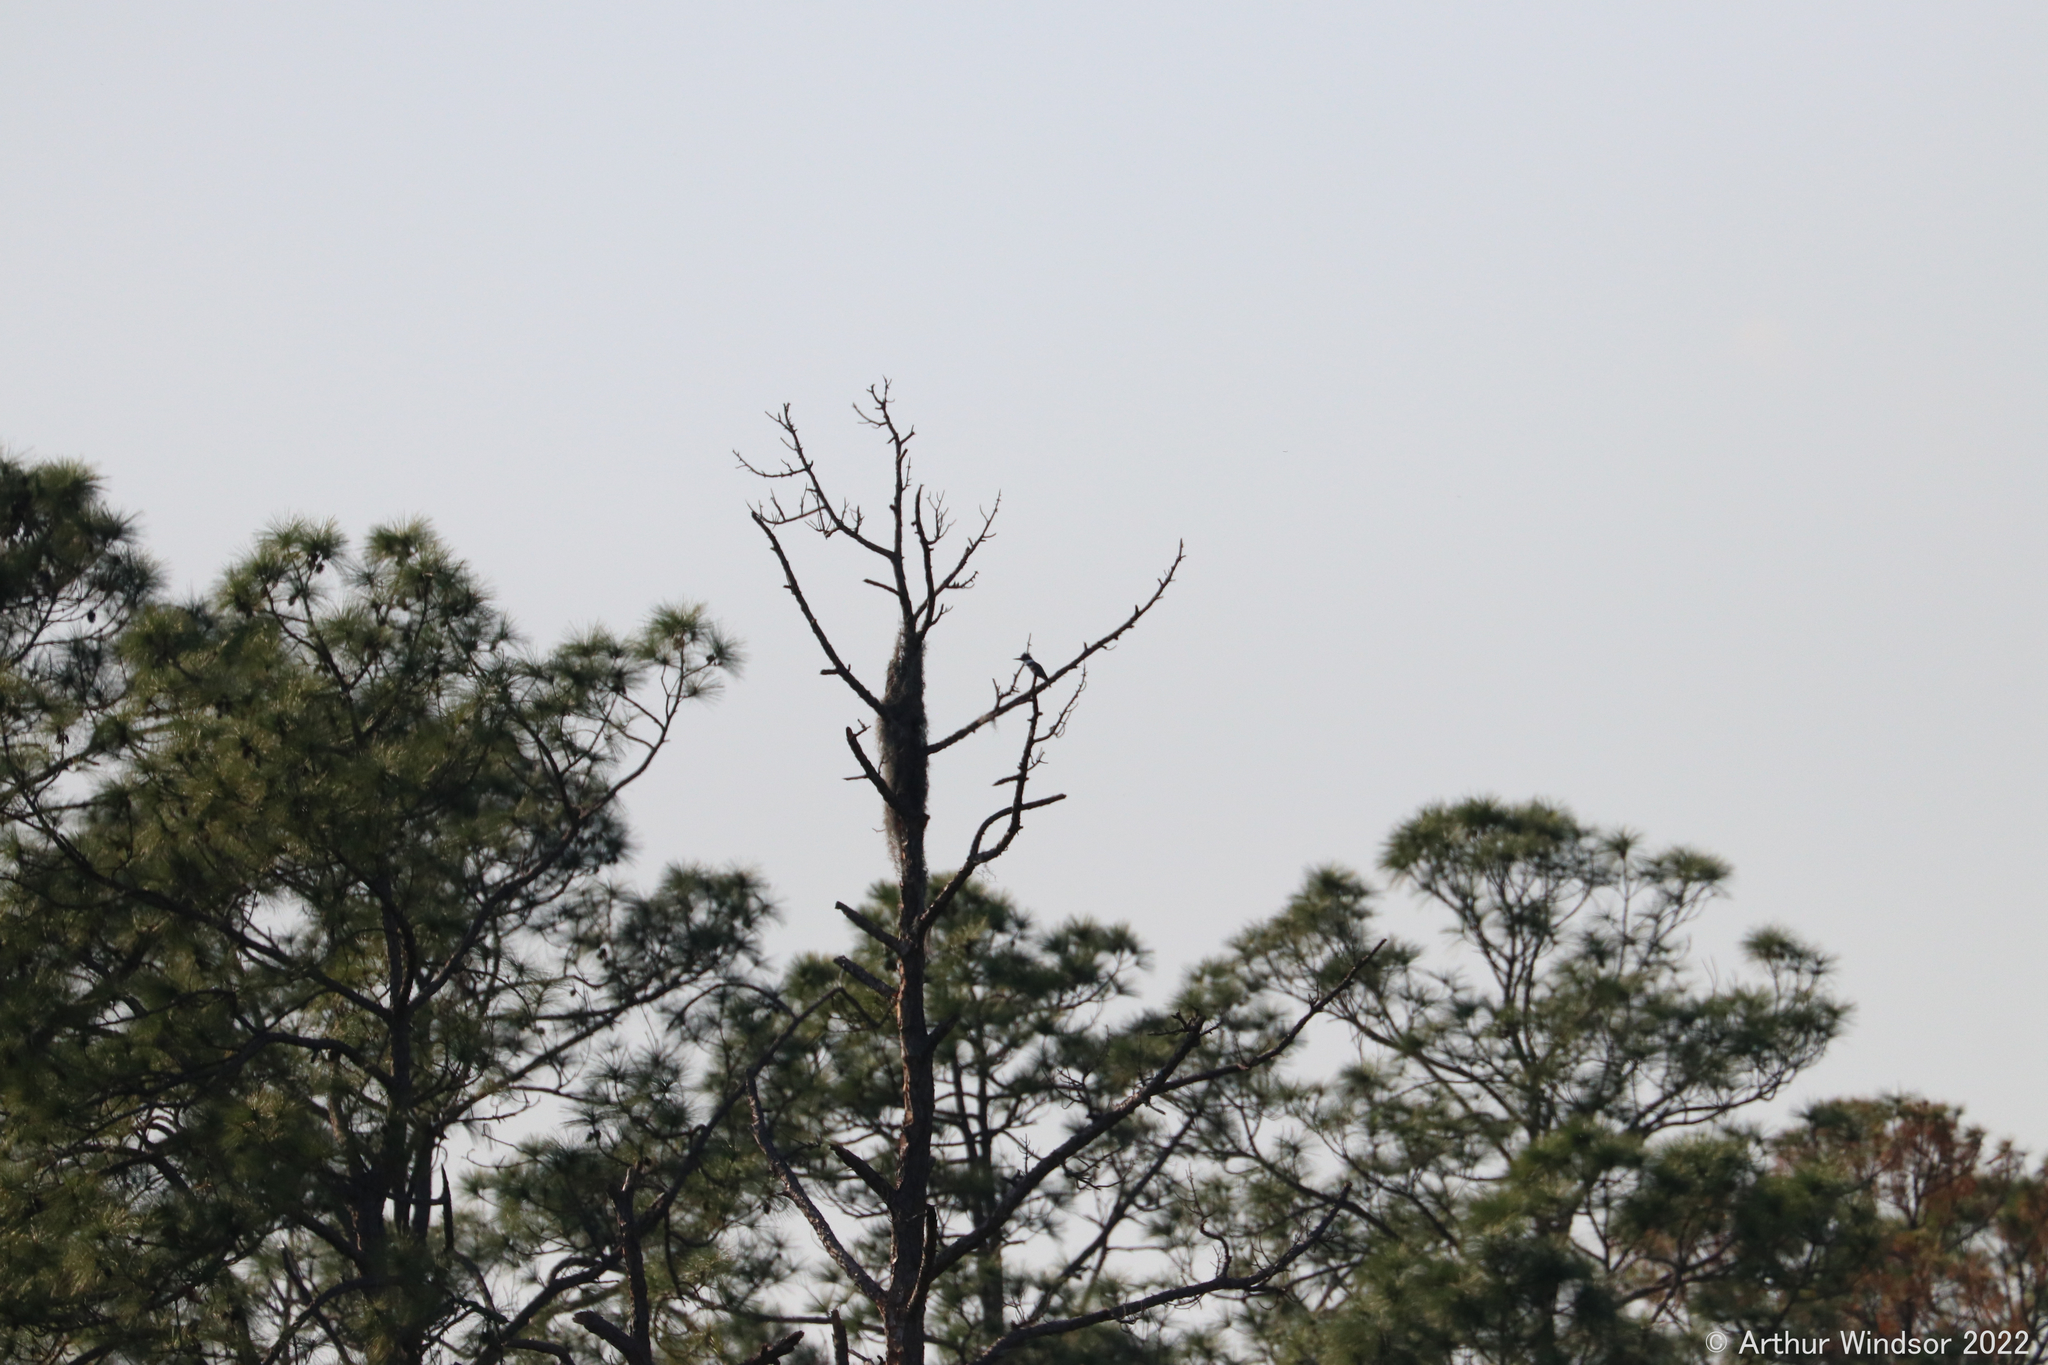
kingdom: Animalia
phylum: Chordata
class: Aves
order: Coraciiformes
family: Alcedinidae
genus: Megaceryle
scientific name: Megaceryle alcyon
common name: Belted kingfisher
